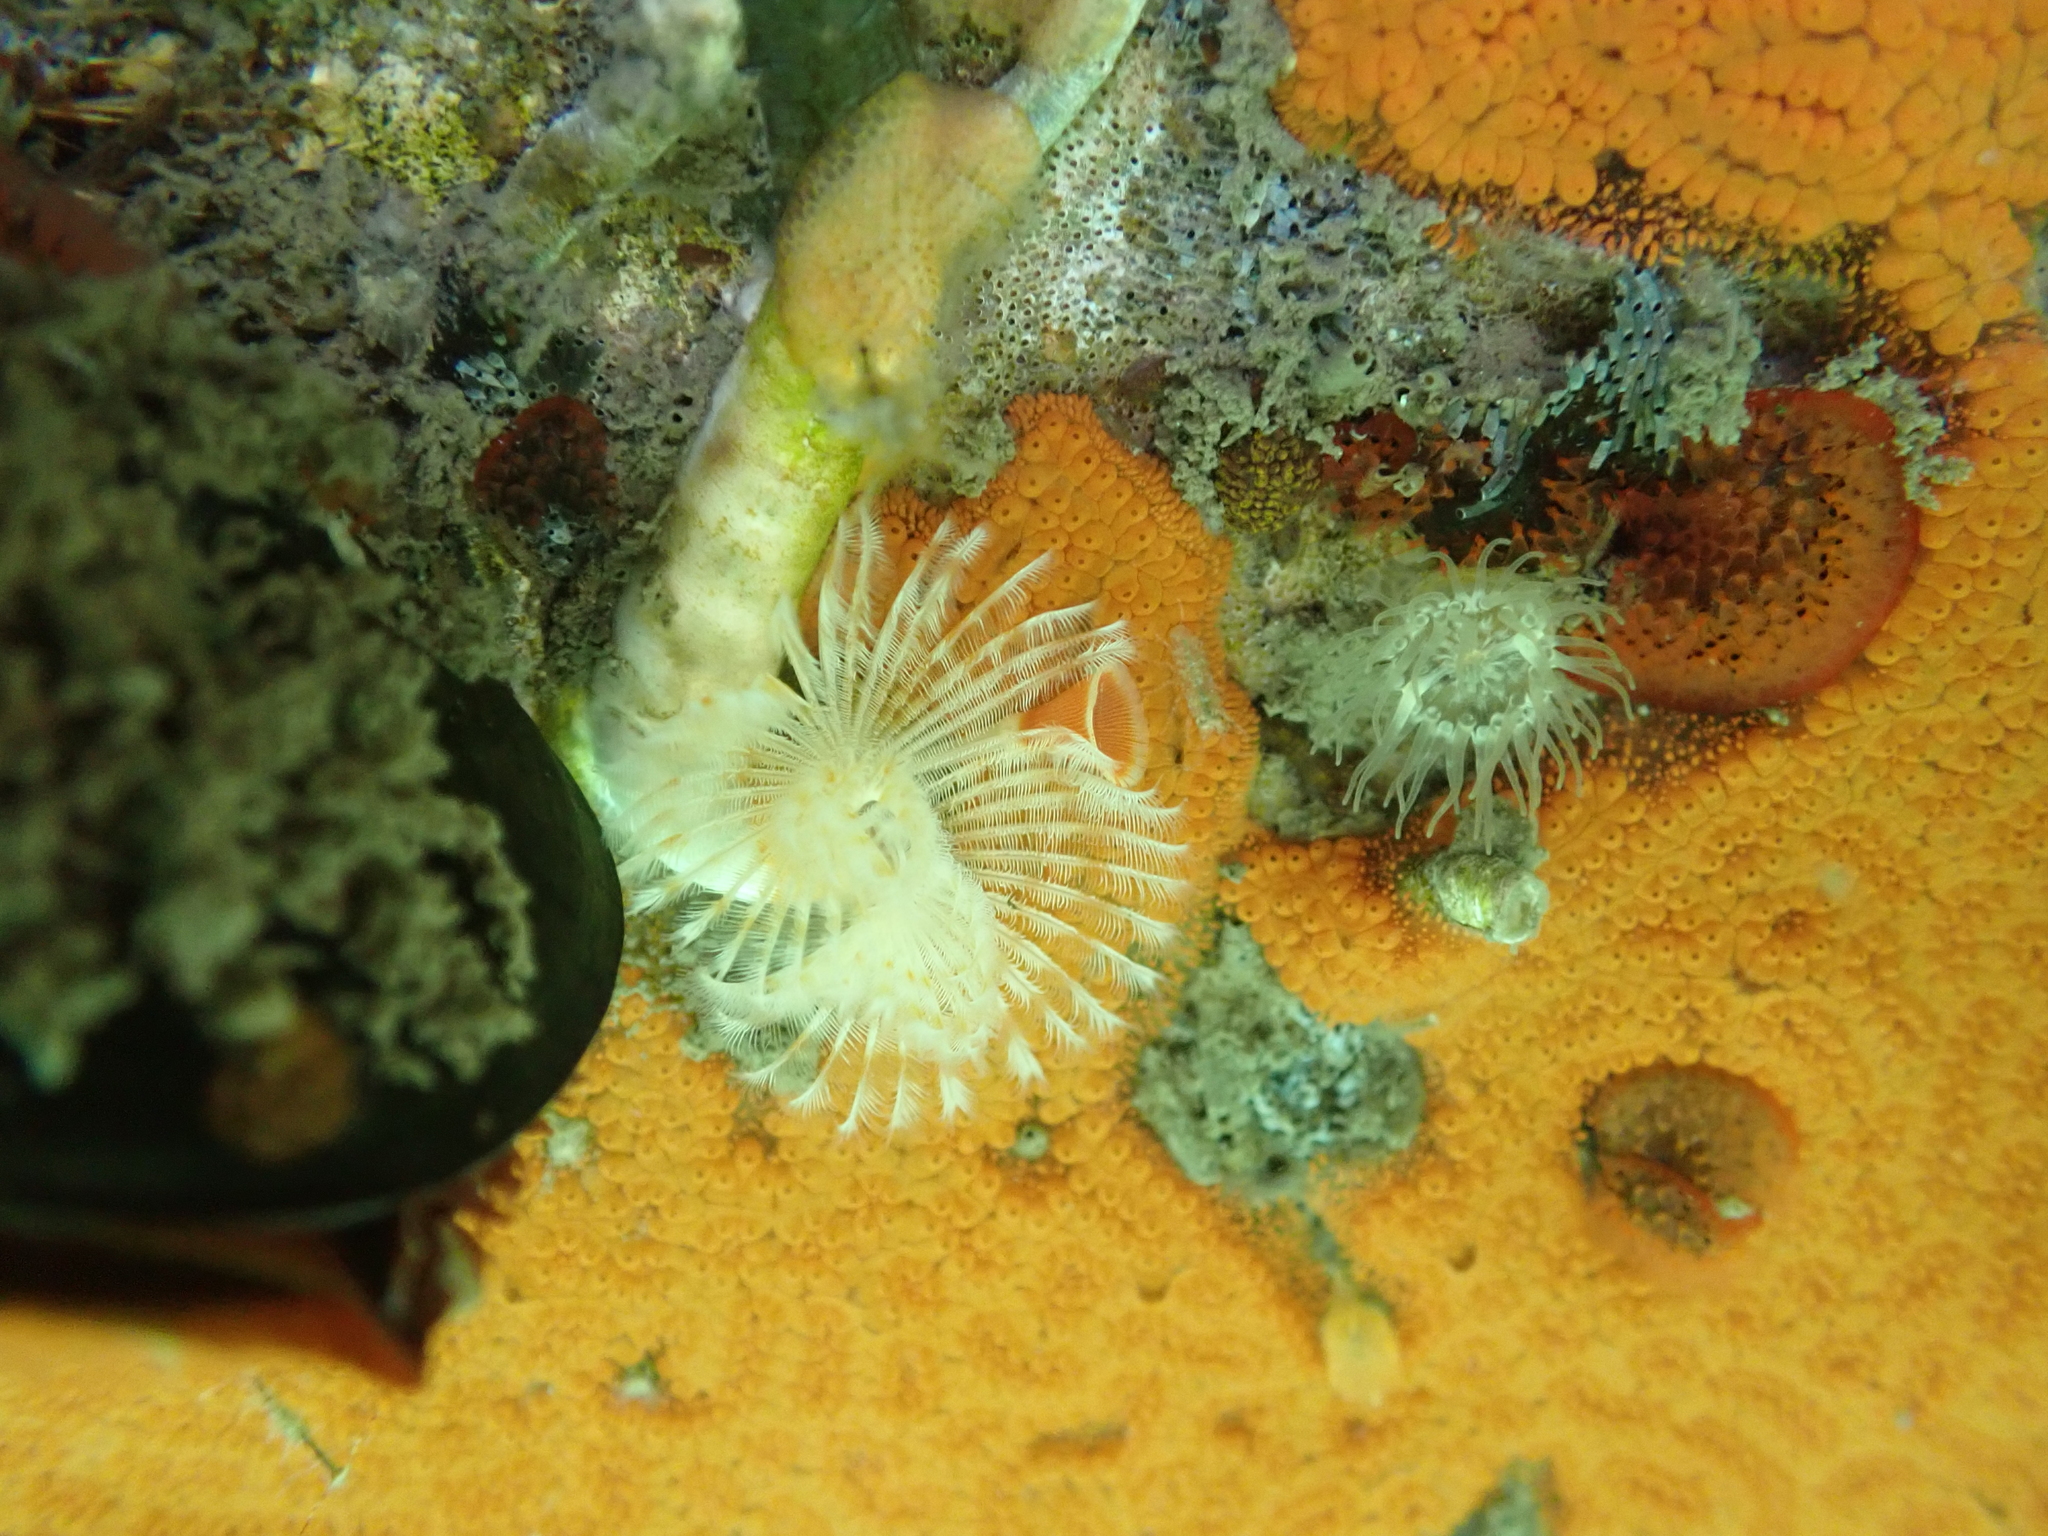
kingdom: Animalia
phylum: Annelida
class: Polychaeta
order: Sabellida
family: Serpulidae
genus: Serpula
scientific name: Serpula columbiana
